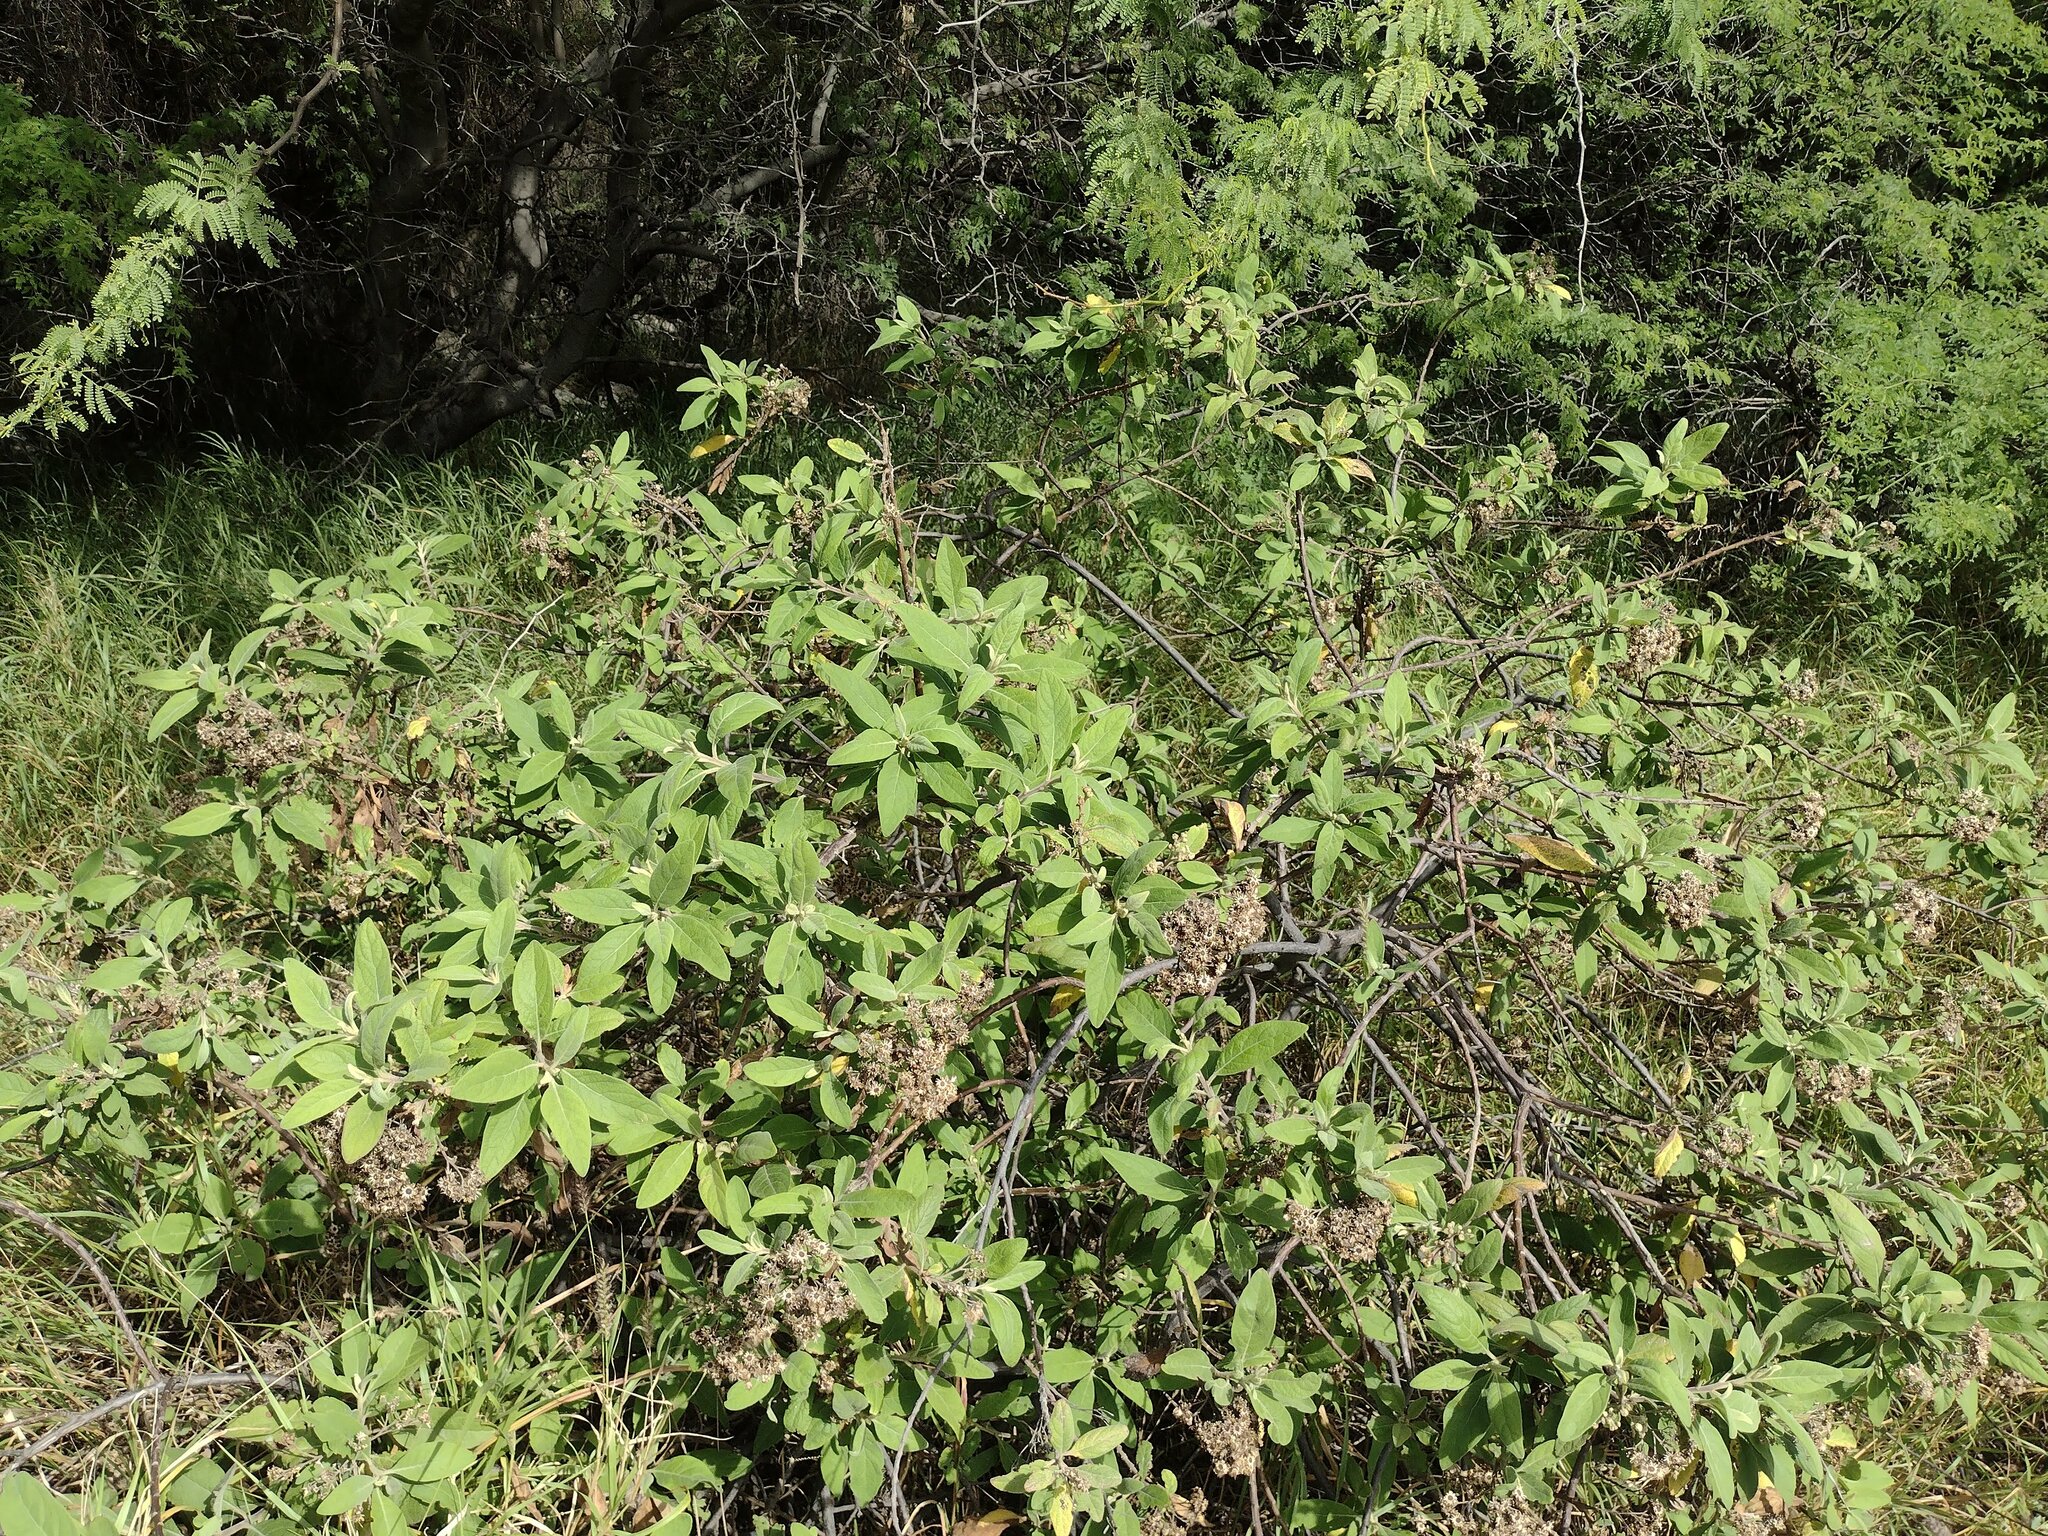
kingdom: Plantae
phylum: Tracheophyta
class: Magnoliopsida
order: Asterales
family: Asteraceae
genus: Pluchea
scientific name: Pluchea carolinensis
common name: Marsh fleabane
